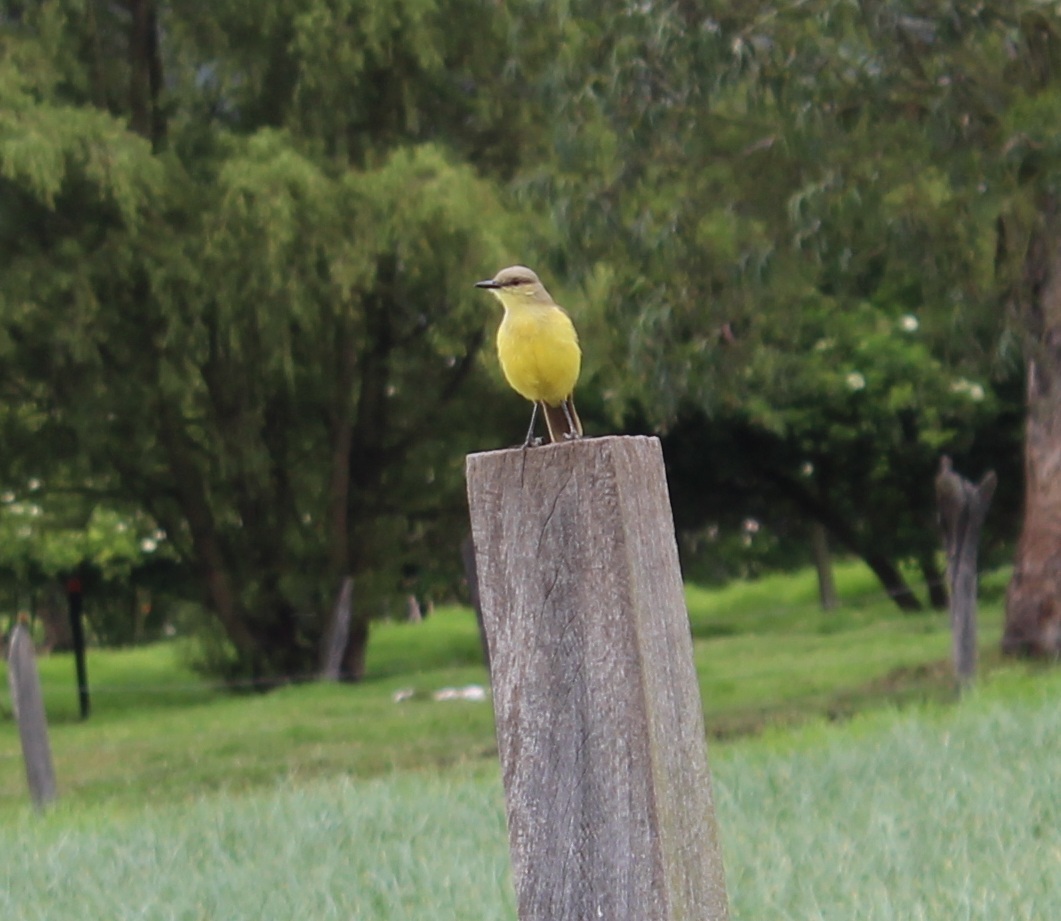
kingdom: Animalia
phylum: Chordata
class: Aves
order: Passeriformes
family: Tyrannidae
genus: Machetornis
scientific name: Machetornis rixosa
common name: Cattle tyrant
